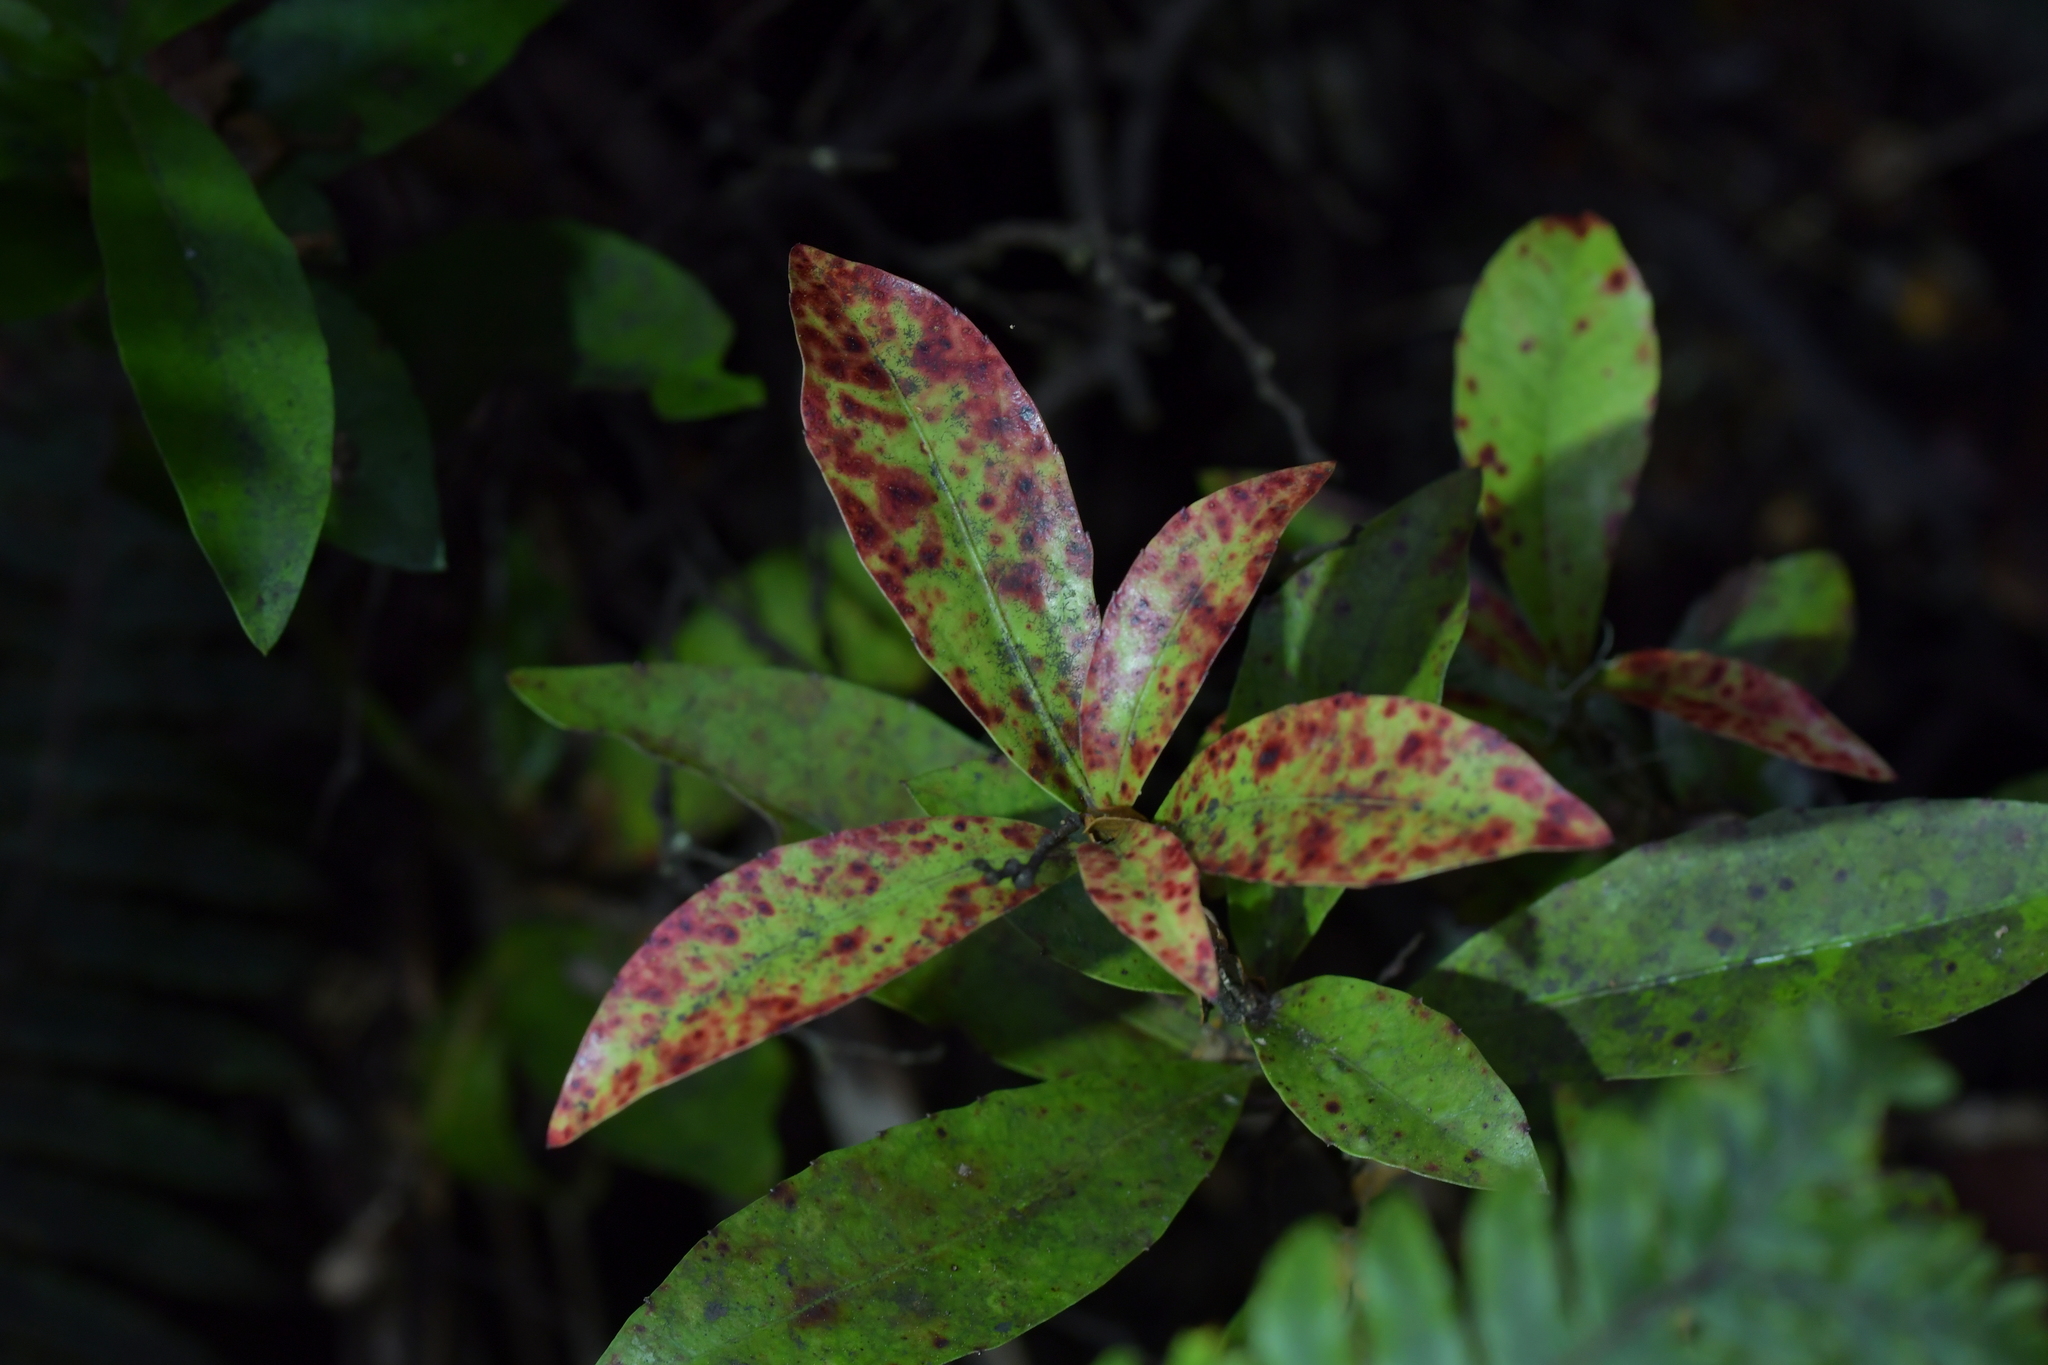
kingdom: Plantae
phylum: Tracheophyta
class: Magnoliopsida
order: Canellales
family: Winteraceae
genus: Pseudowintera
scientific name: Pseudowintera colorata
